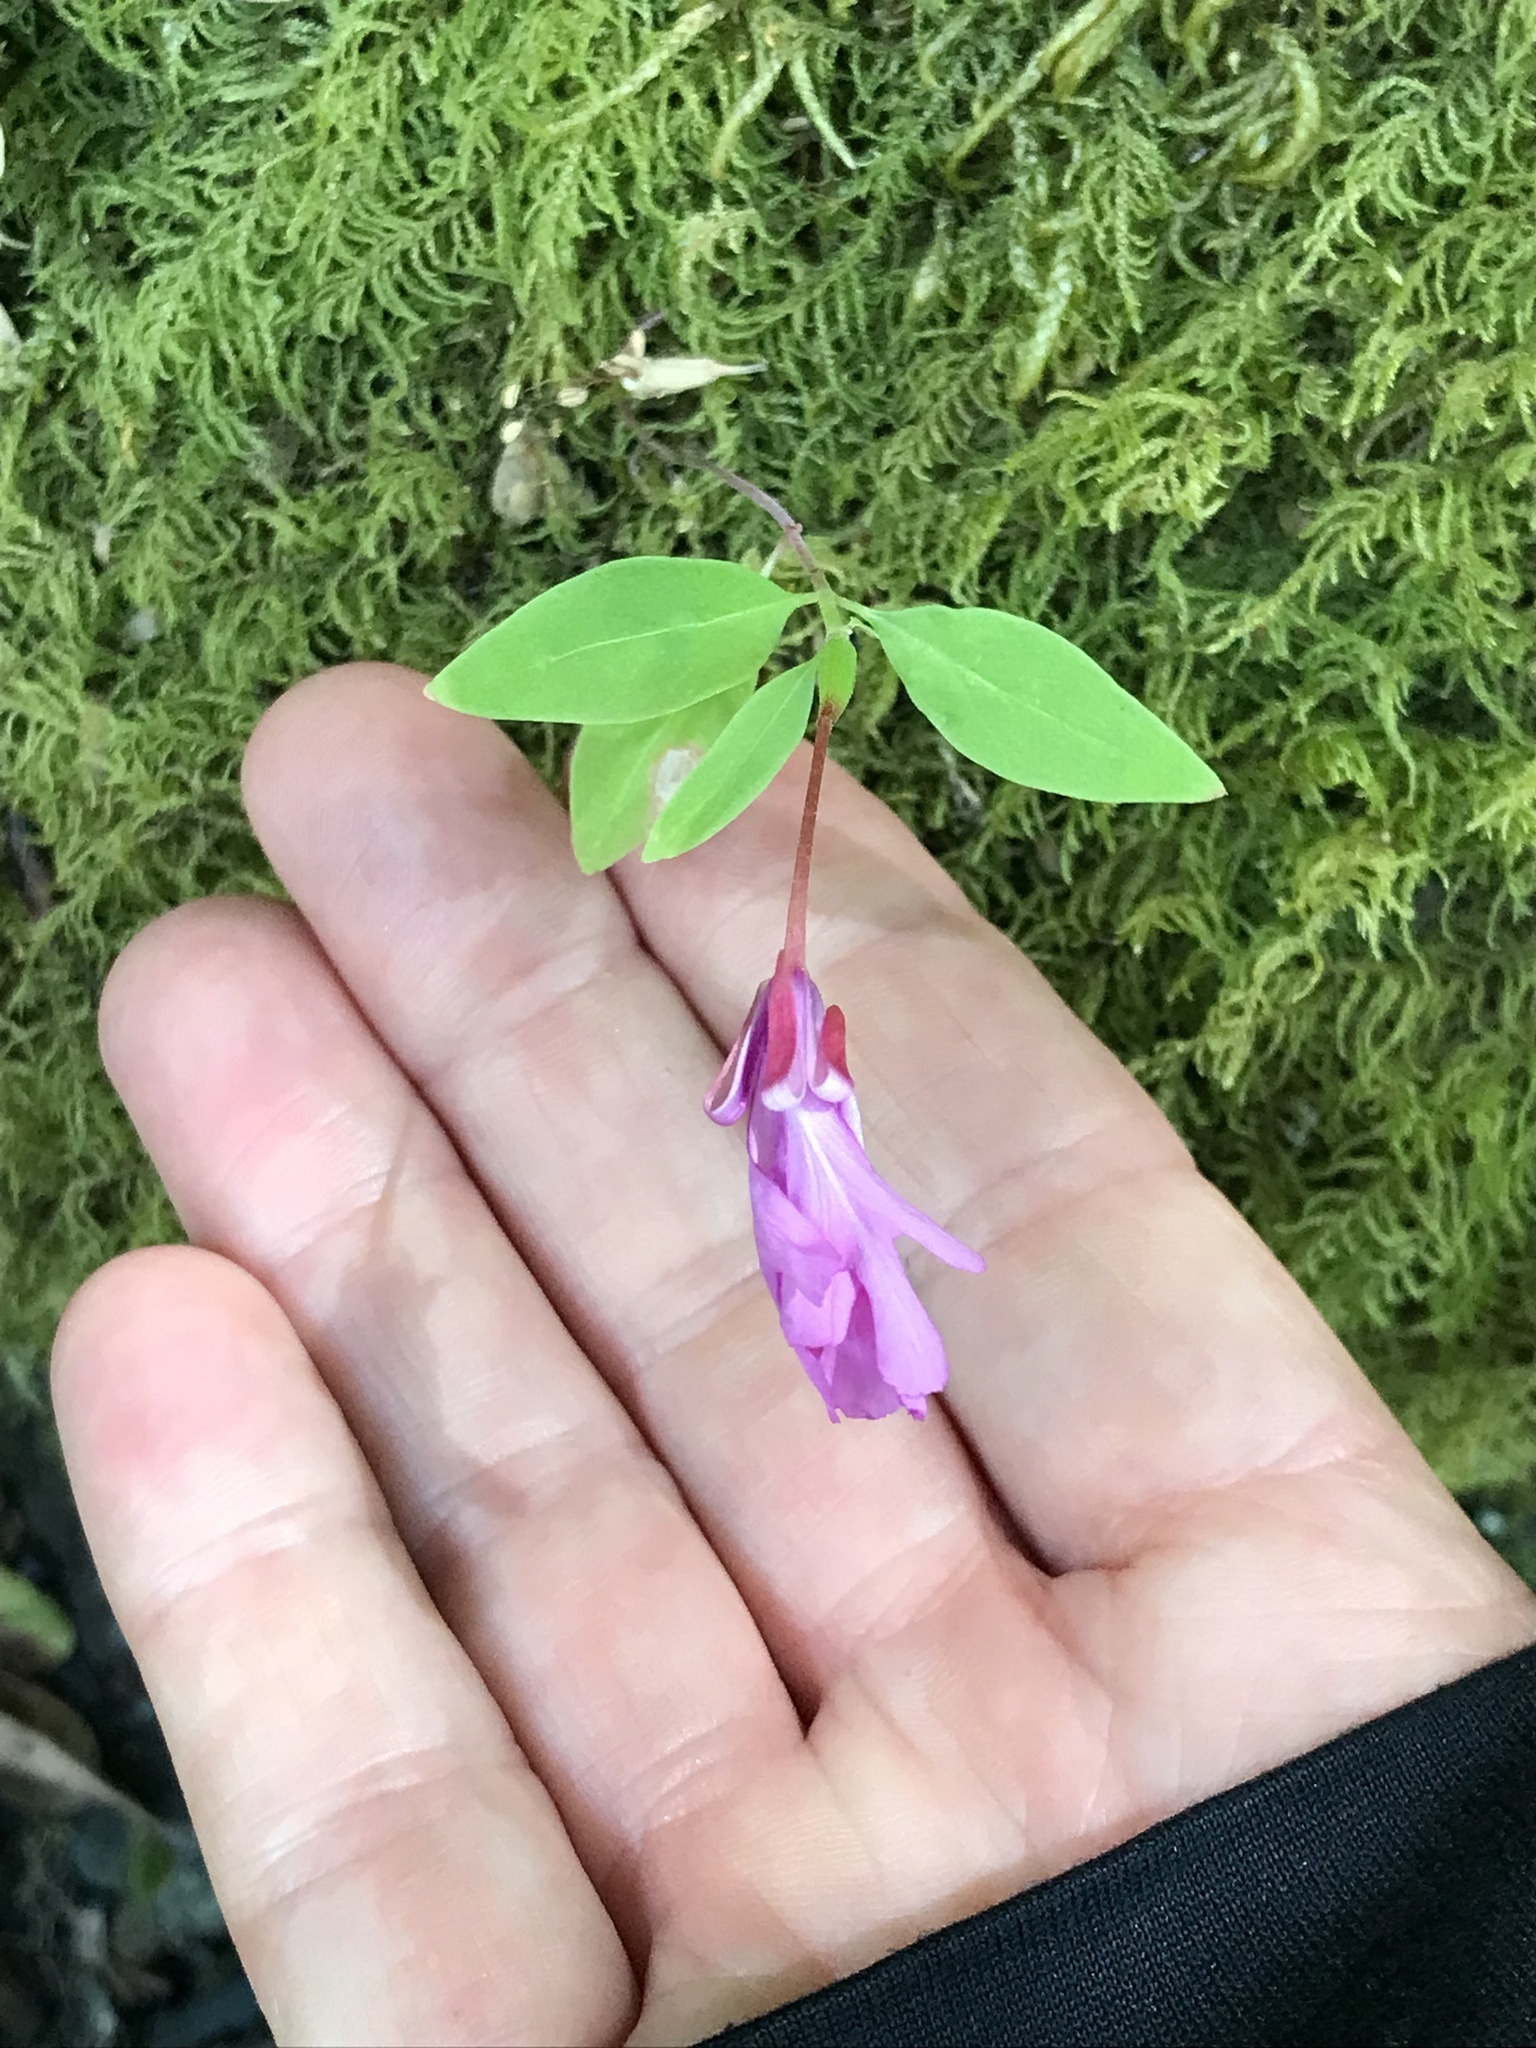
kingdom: Plantae
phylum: Tracheophyta
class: Magnoliopsida
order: Myrtales
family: Onagraceae
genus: Clarkia
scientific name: Clarkia concinna
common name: Red-ribbons
